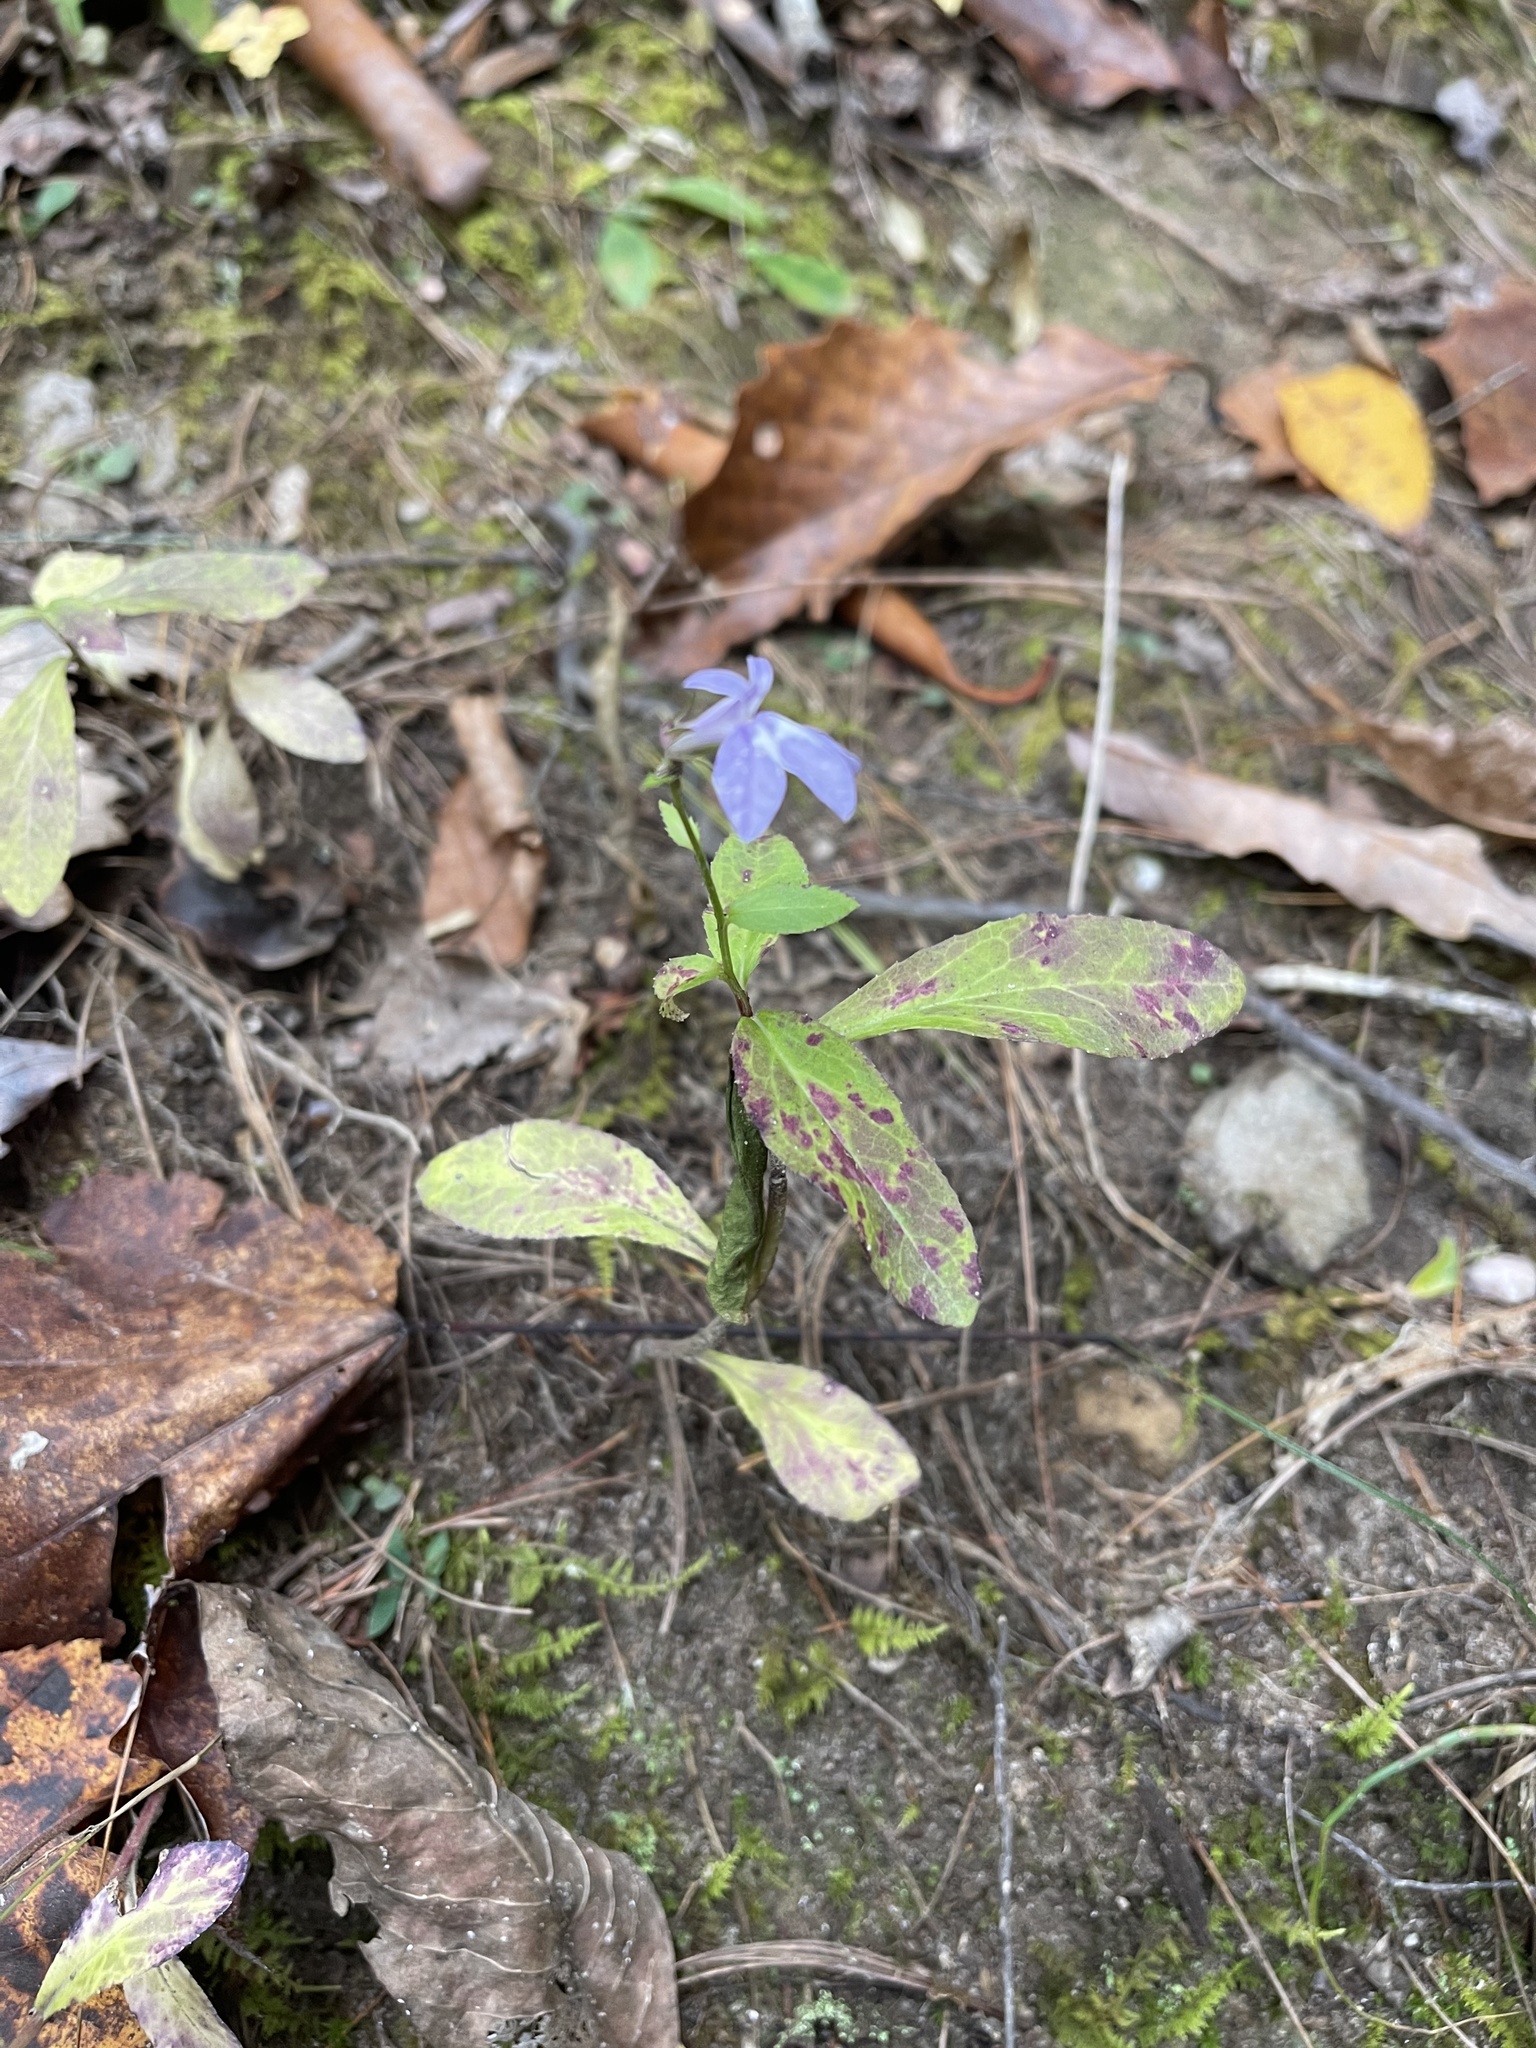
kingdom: Plantae
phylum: Tracheophyta
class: Magnoliopsida
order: Asterales
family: Campanulaceae
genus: Lobelia
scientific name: Lobelia puberula
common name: Purple dewdrop
